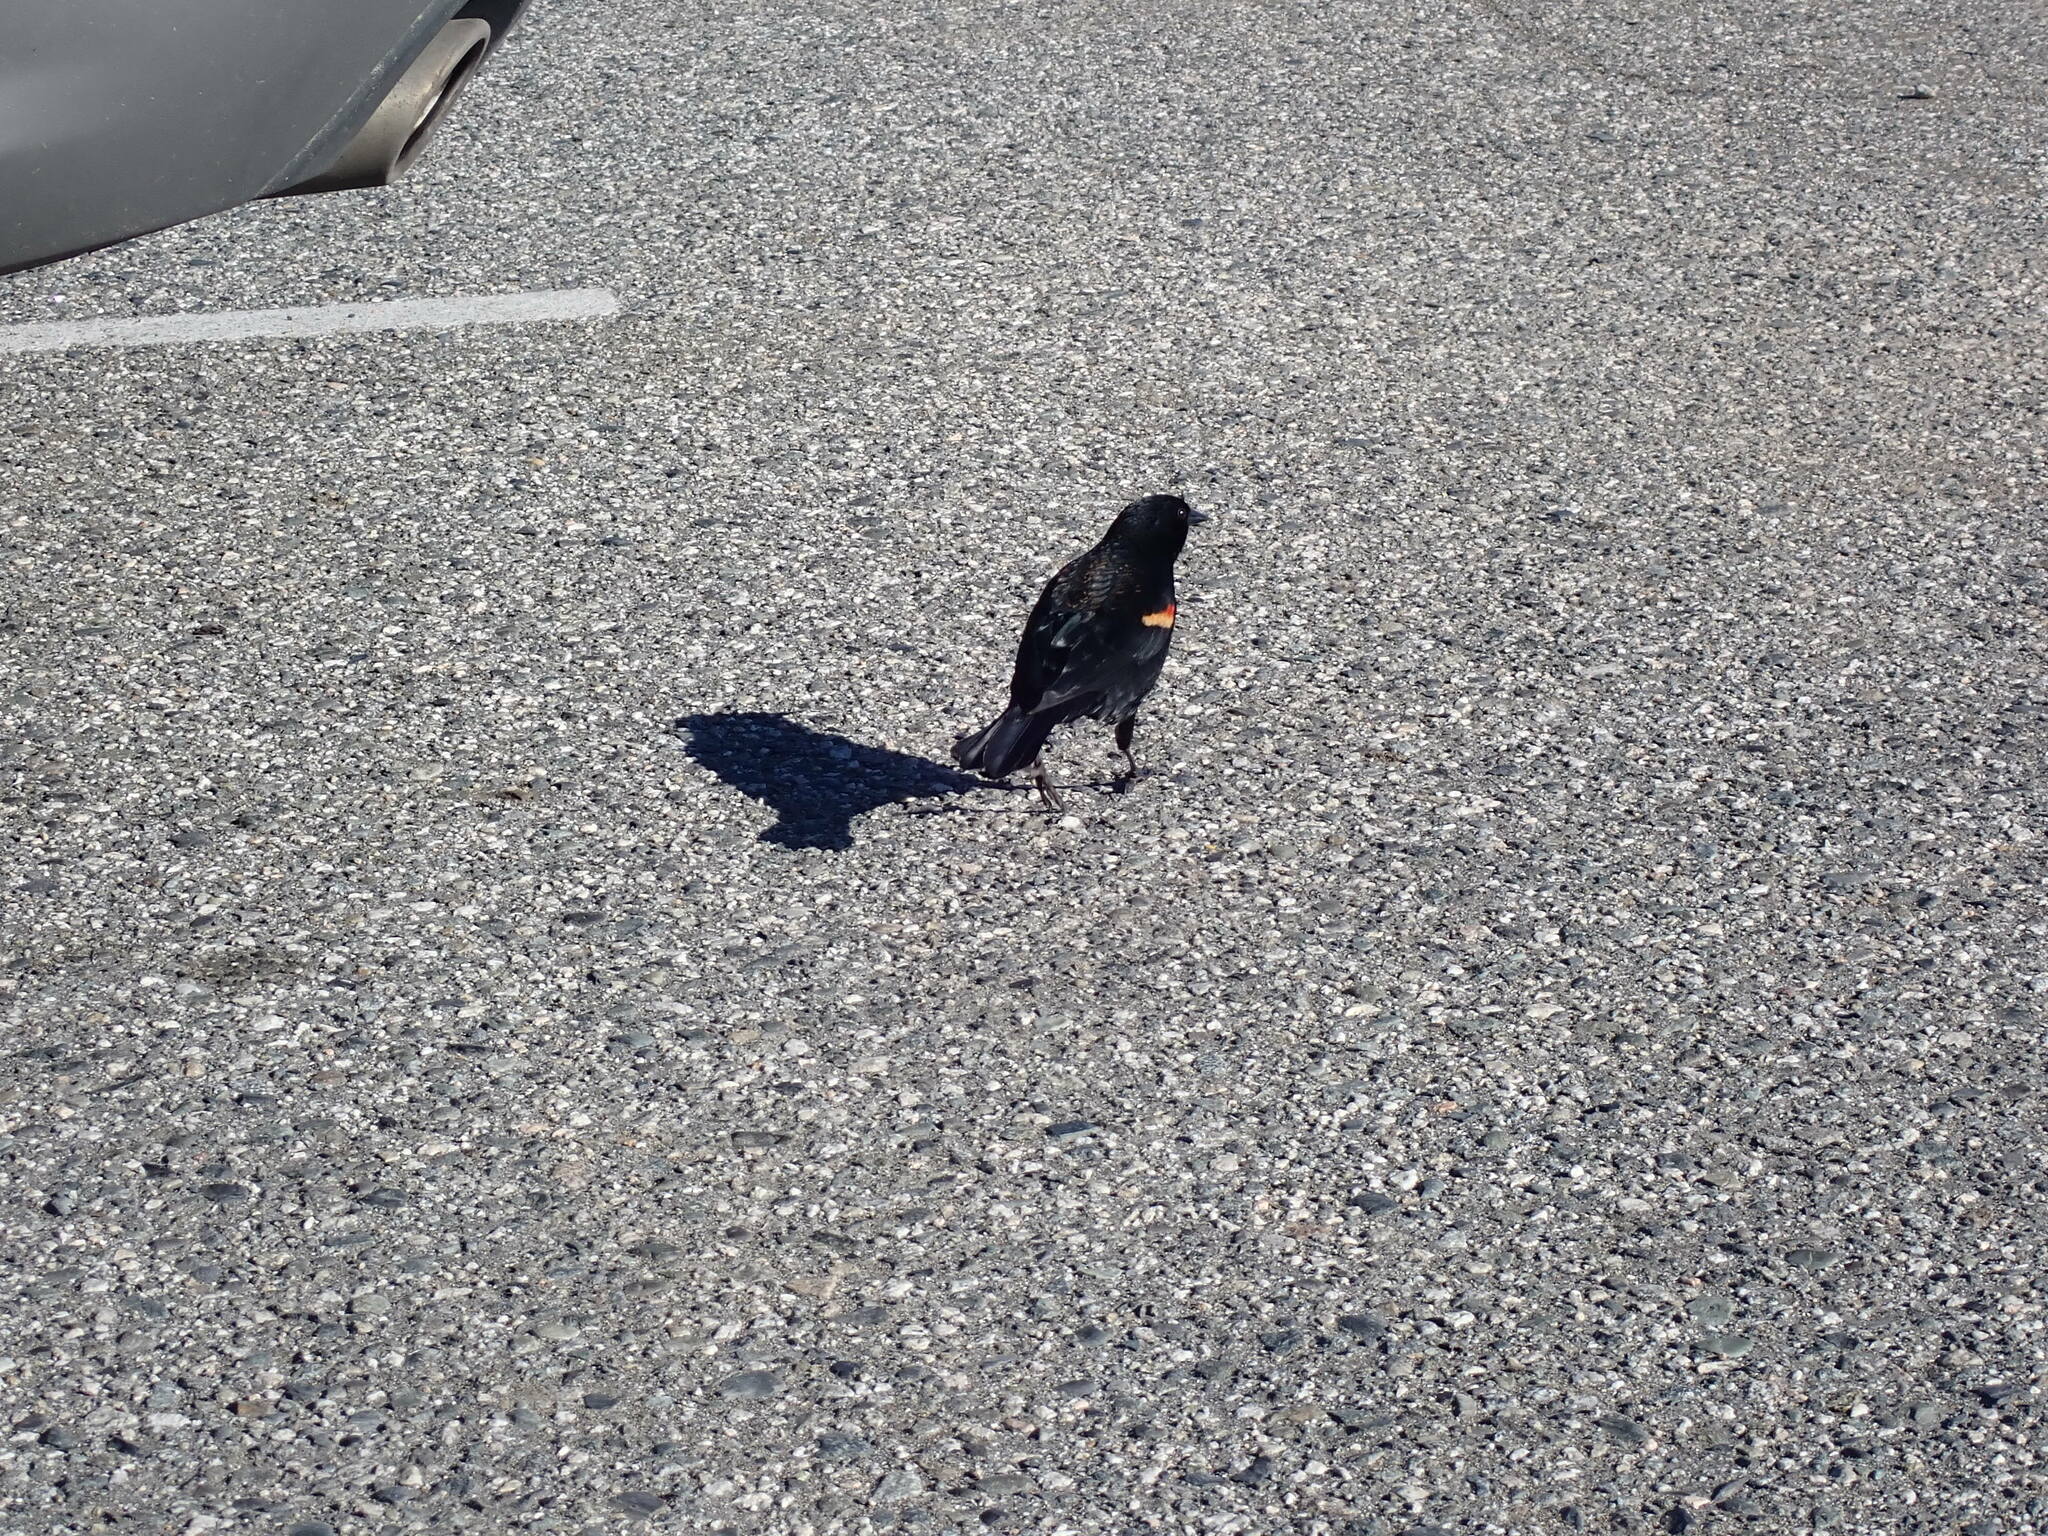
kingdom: Animalia
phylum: Chordata
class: Aves
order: Passeriformes
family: Icteridae
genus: Agelaius
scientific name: Agelaius phoeniceus
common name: Red-winged blackbird
